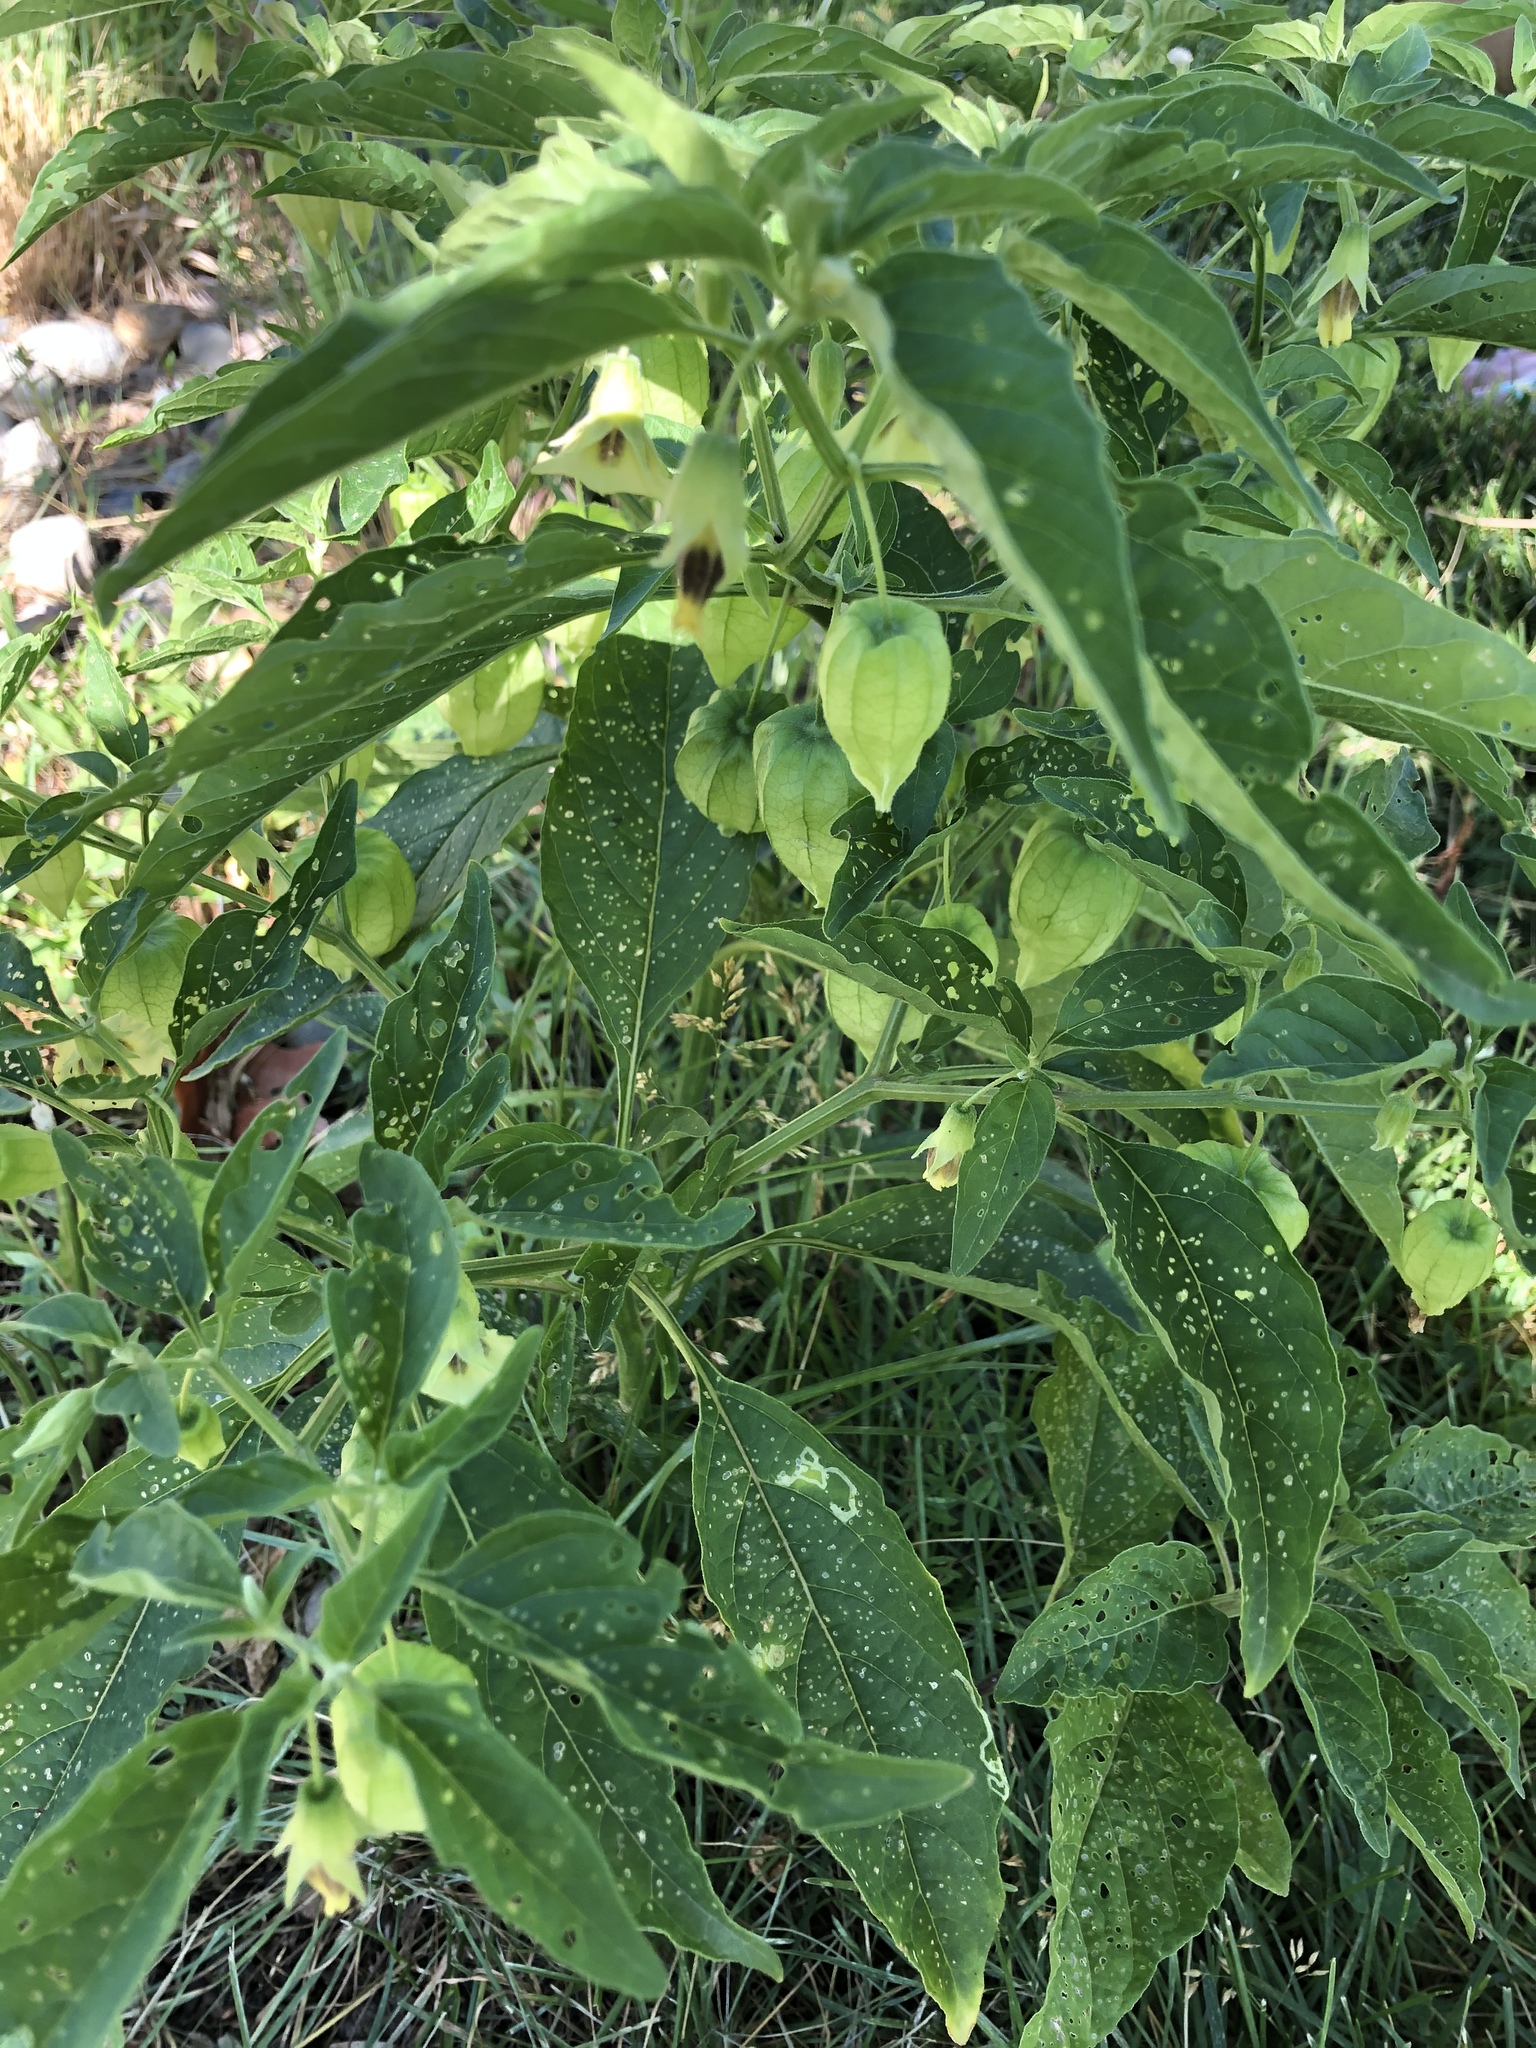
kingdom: Plantae
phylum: Tracheophyta
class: Magnoliopsida
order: Solanales
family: Solanaceae
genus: Physalis
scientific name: Physalis longifolia
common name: Common ground-cherry
